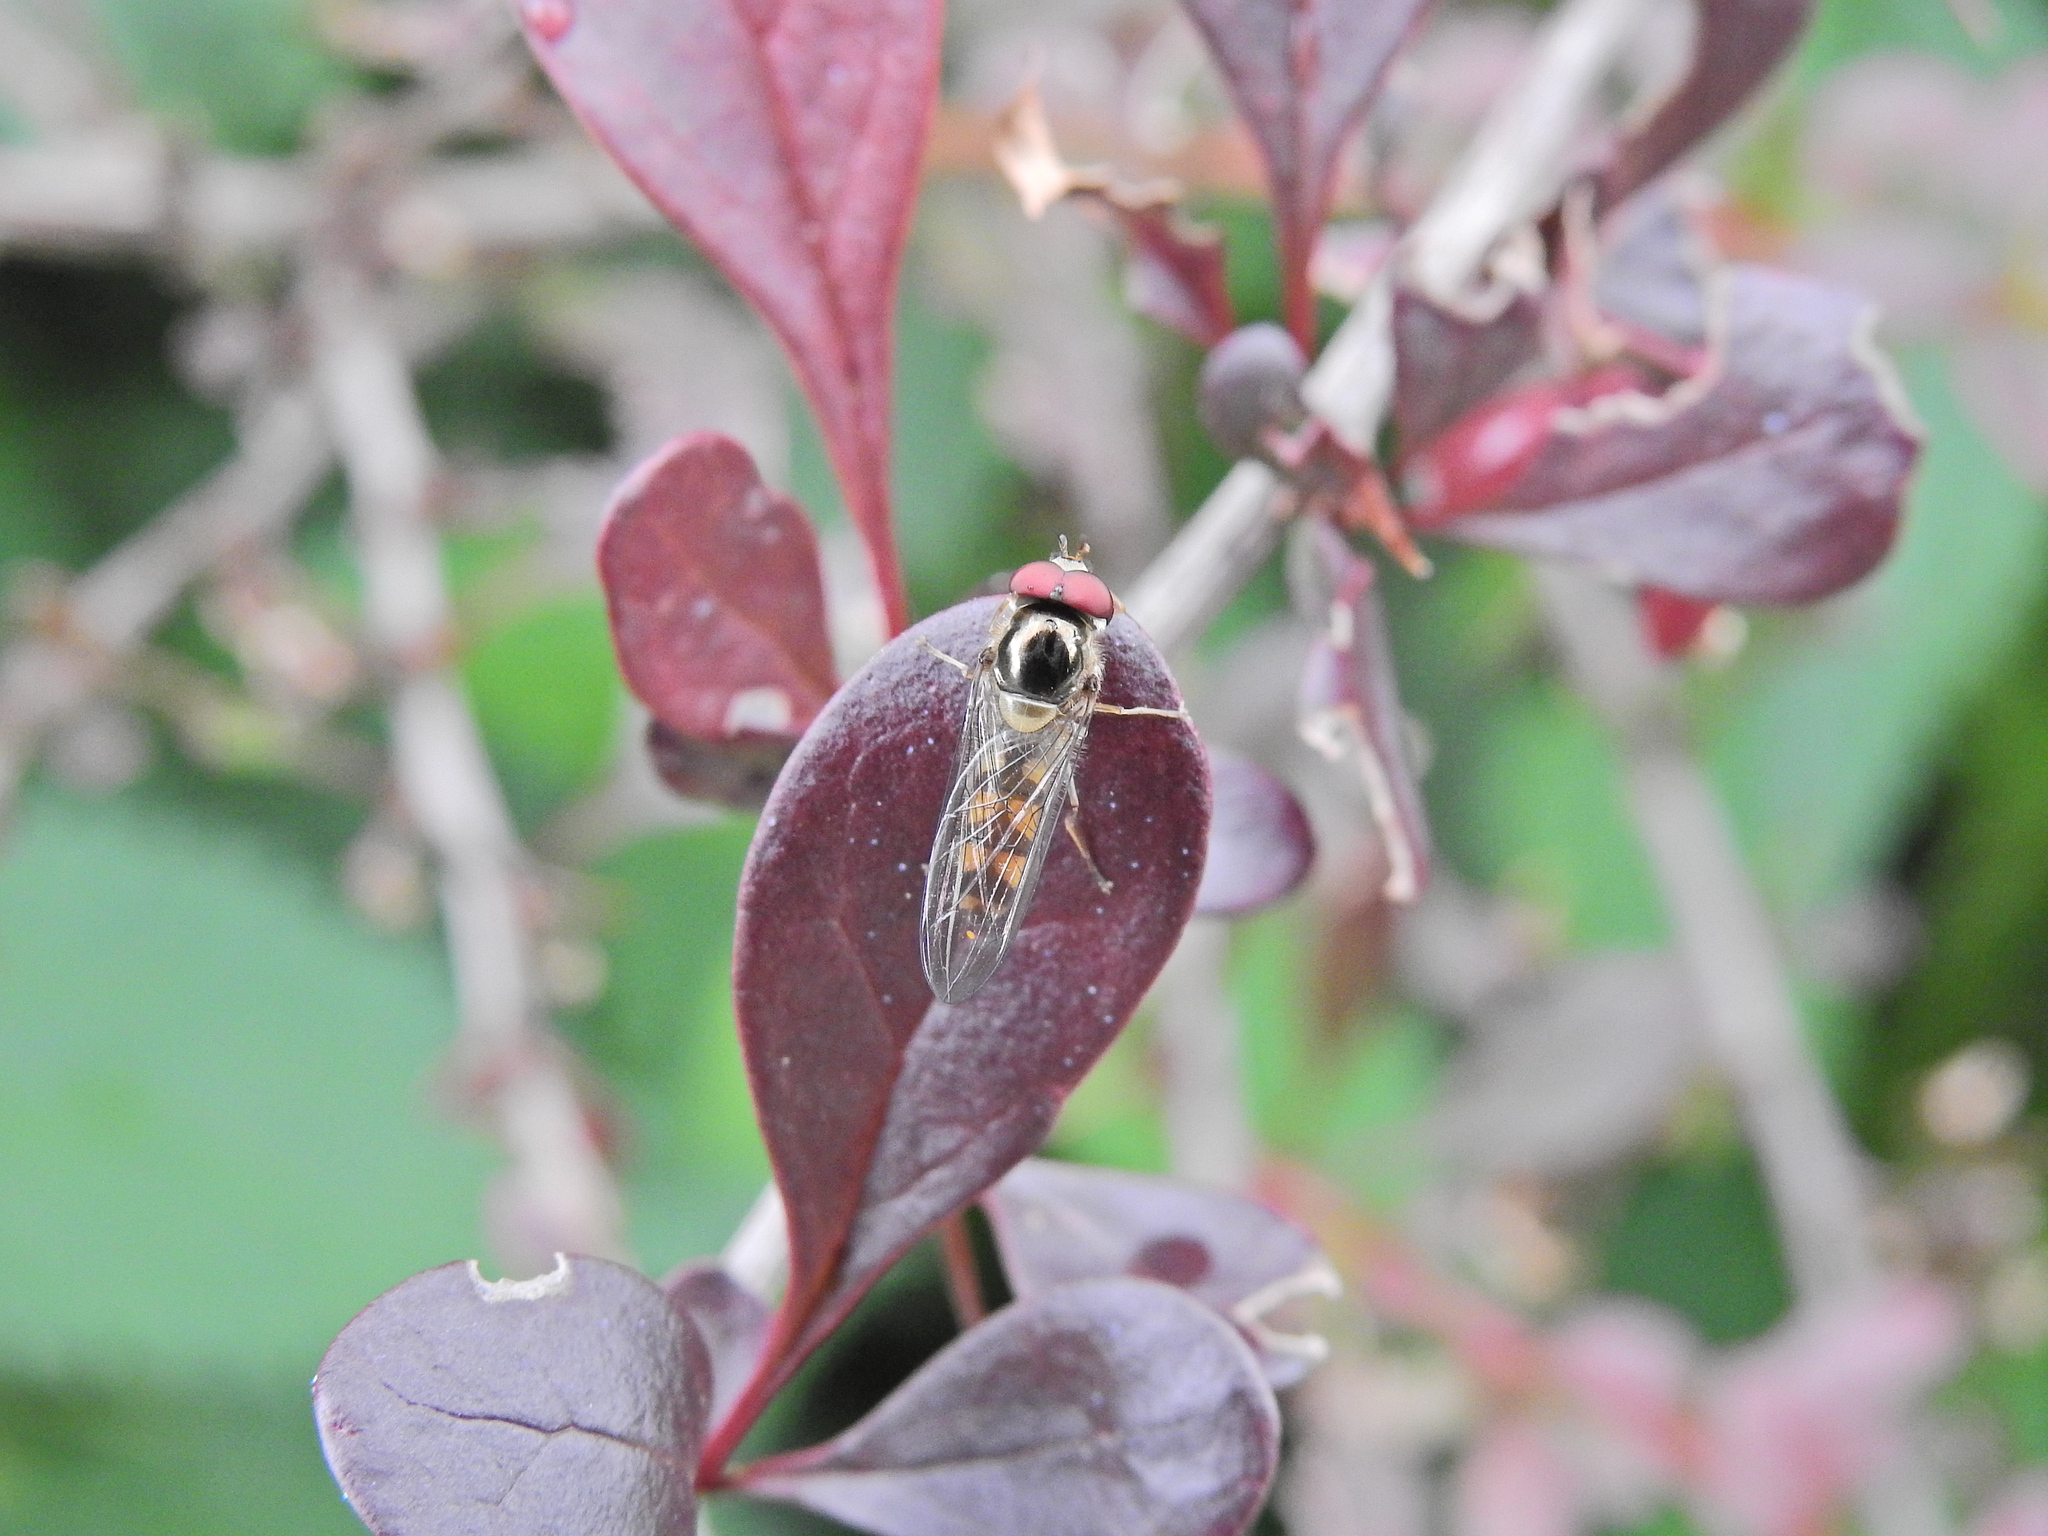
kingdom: Animalia
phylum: Arthropoda
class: Insecta
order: Diptera
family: Syrphidae
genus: Meliscaeva
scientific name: Meliscaeva auricollis
